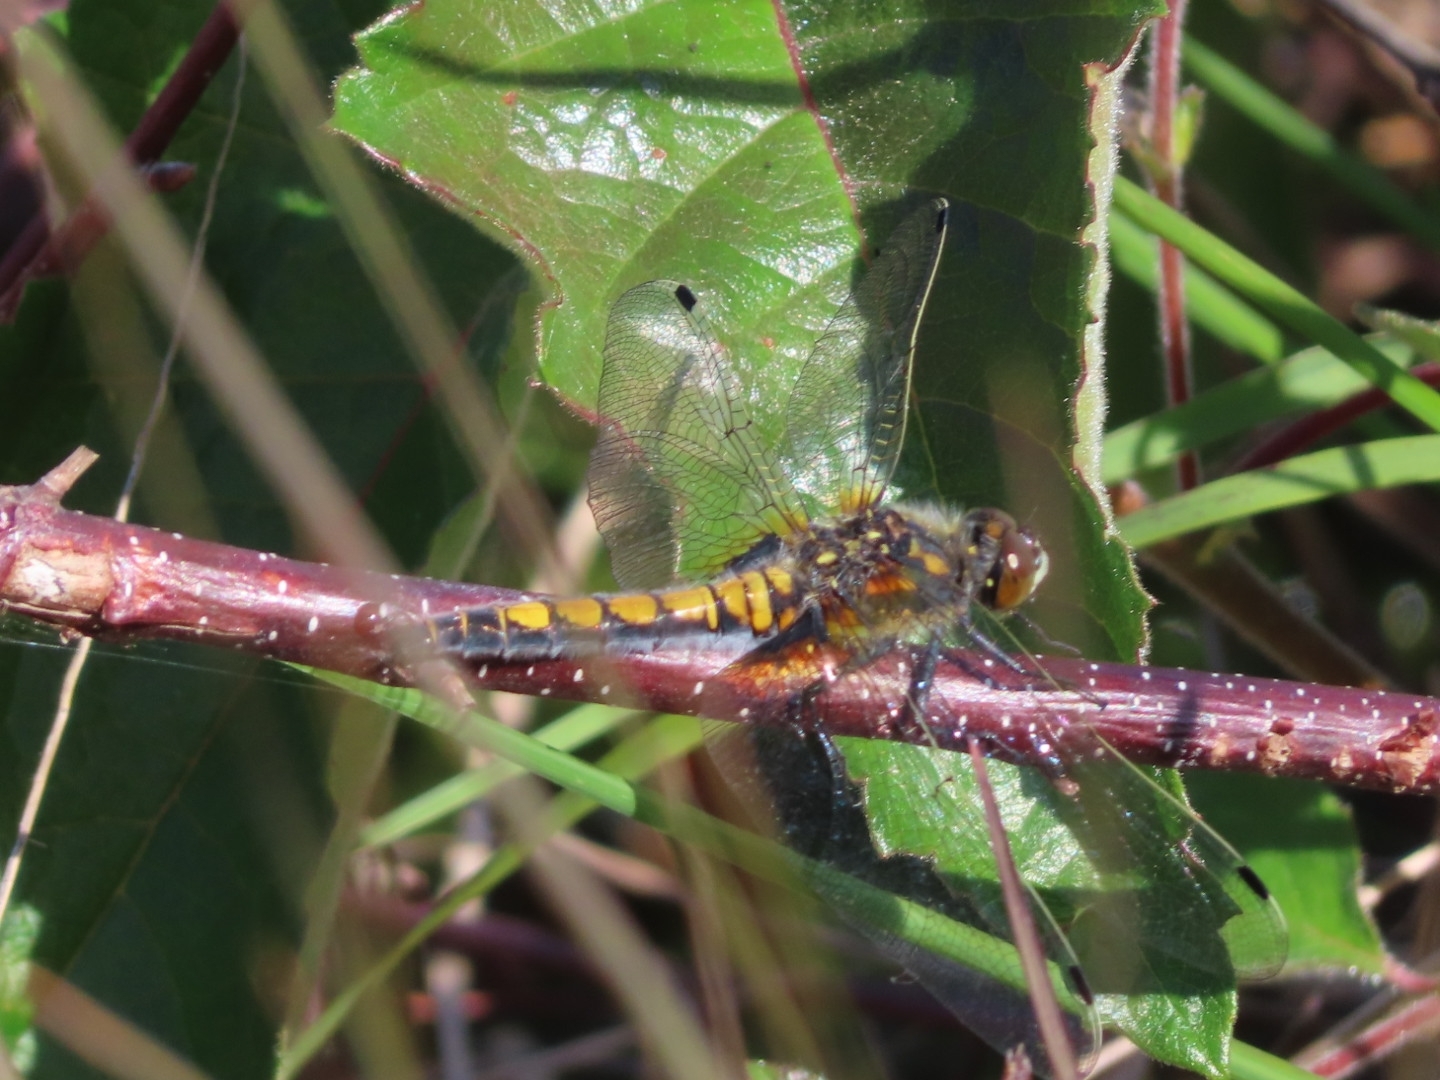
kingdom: Animalia
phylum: Arthropoda
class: Insecta
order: Odonata
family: Libellulidae
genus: Leucorrhinia
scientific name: Leucorrhinia pectoralis
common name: Yellow-spotted whiteface
